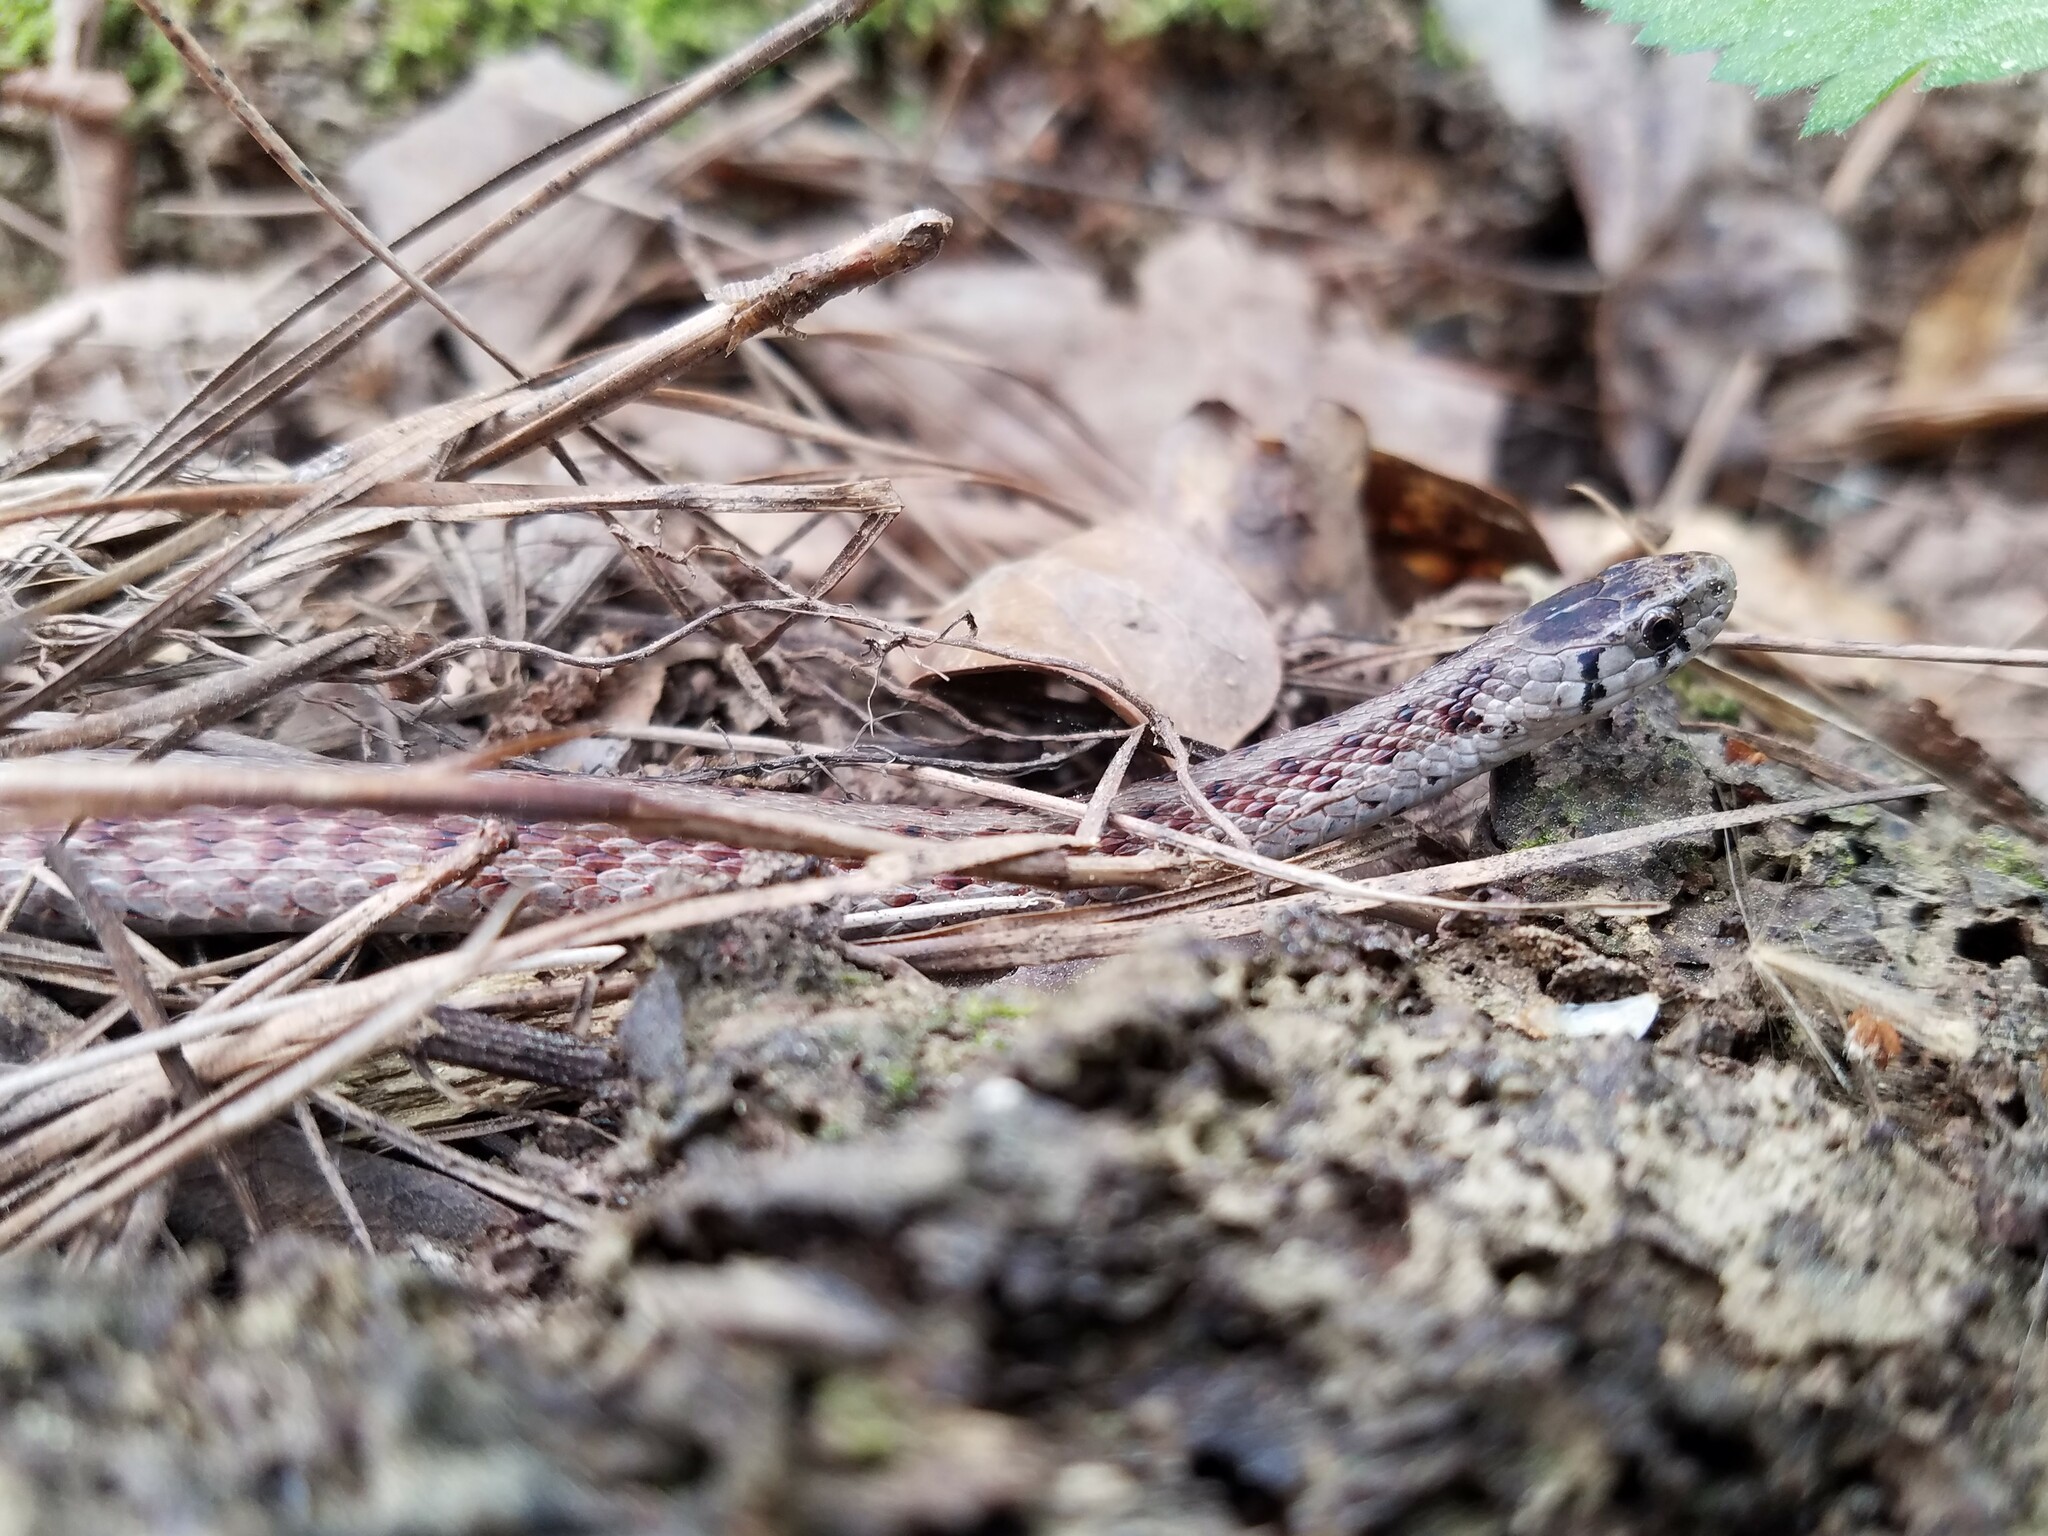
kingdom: Animalia
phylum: Chordata
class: Squamata
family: Colubridae
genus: Storeria
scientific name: Storeria dekayi
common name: (dekay’s) brown snake
